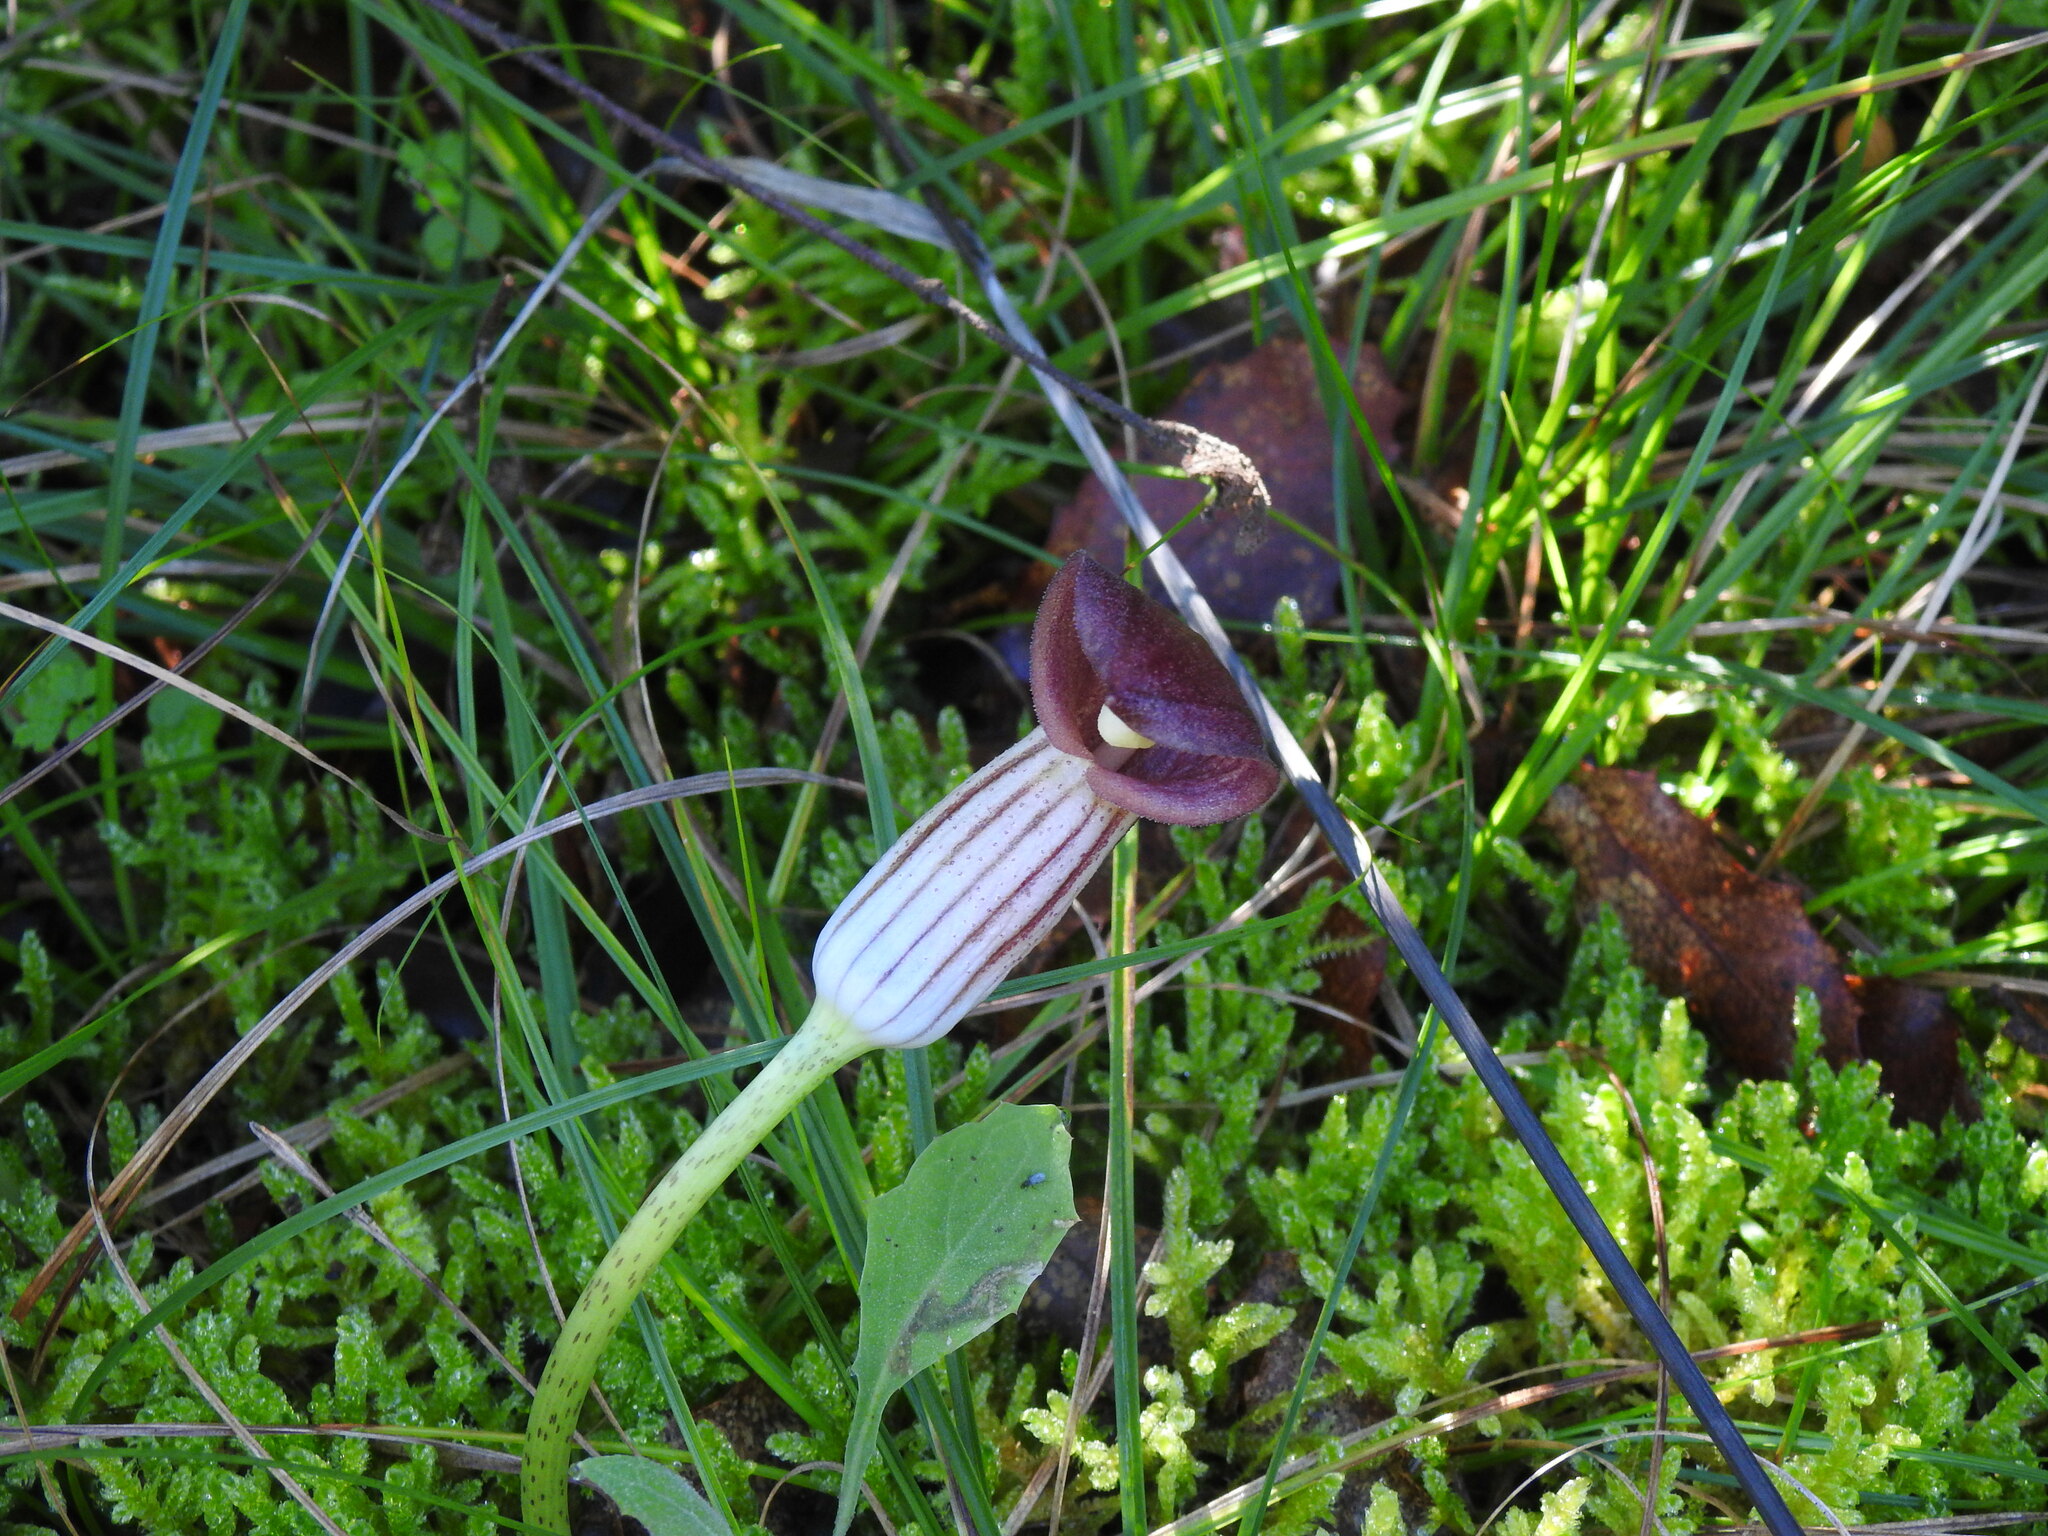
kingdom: Plantae
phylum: Tracheophyta
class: Liliopsida
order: Alismatales
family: Araceae
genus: Arisarum
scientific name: Arisarum simorrhinum
